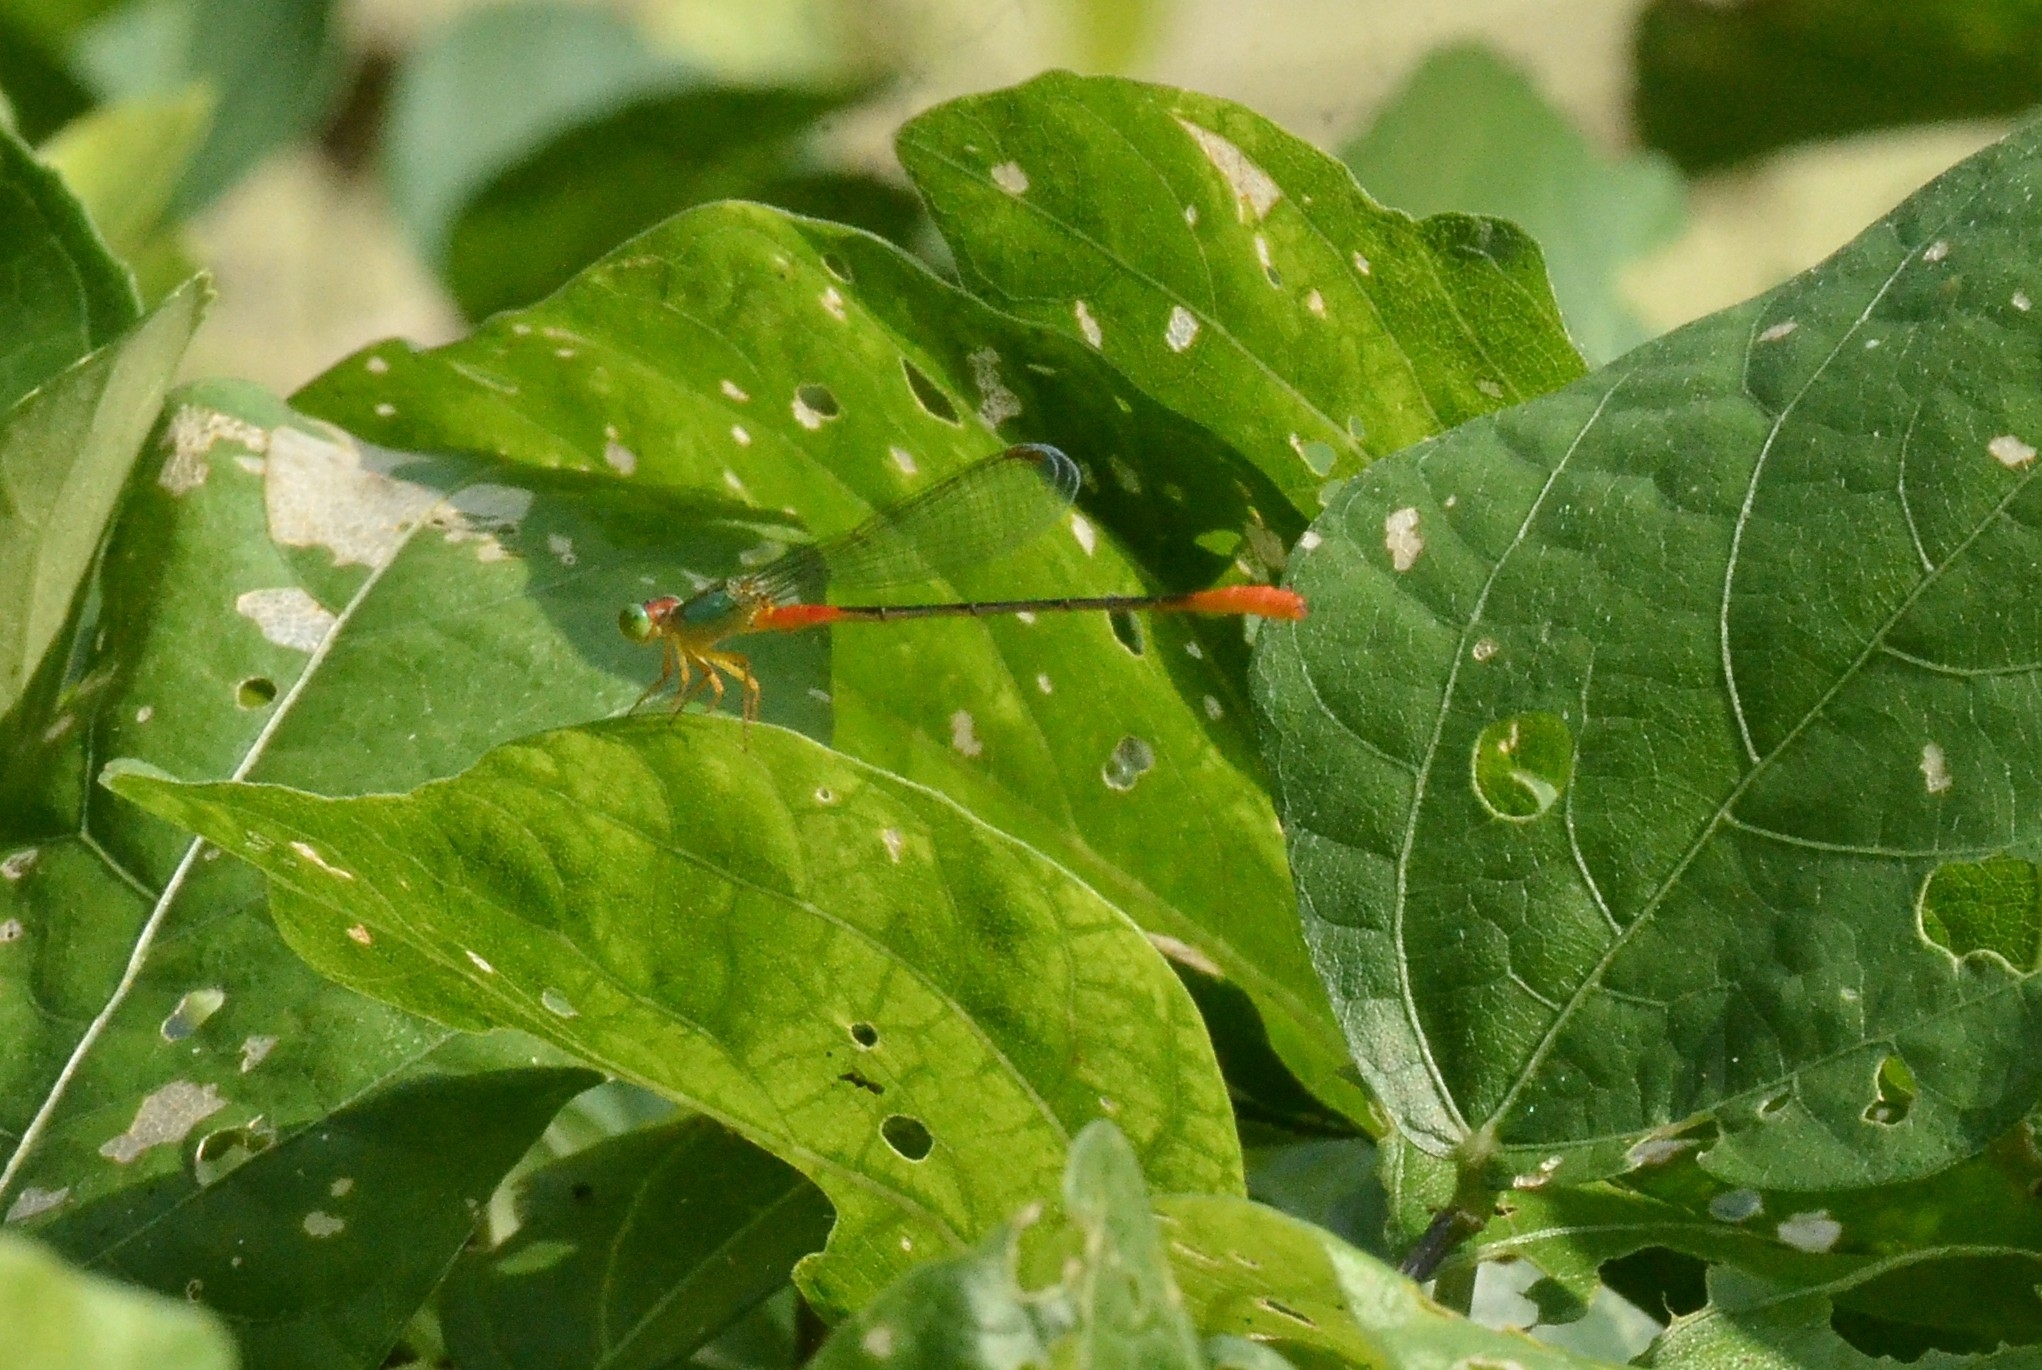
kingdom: Animalia
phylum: Arthropoda
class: Insecta
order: Odonata
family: Coenagrionidae
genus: Ceriagrion
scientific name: Ceriagrion cerinorubellum
